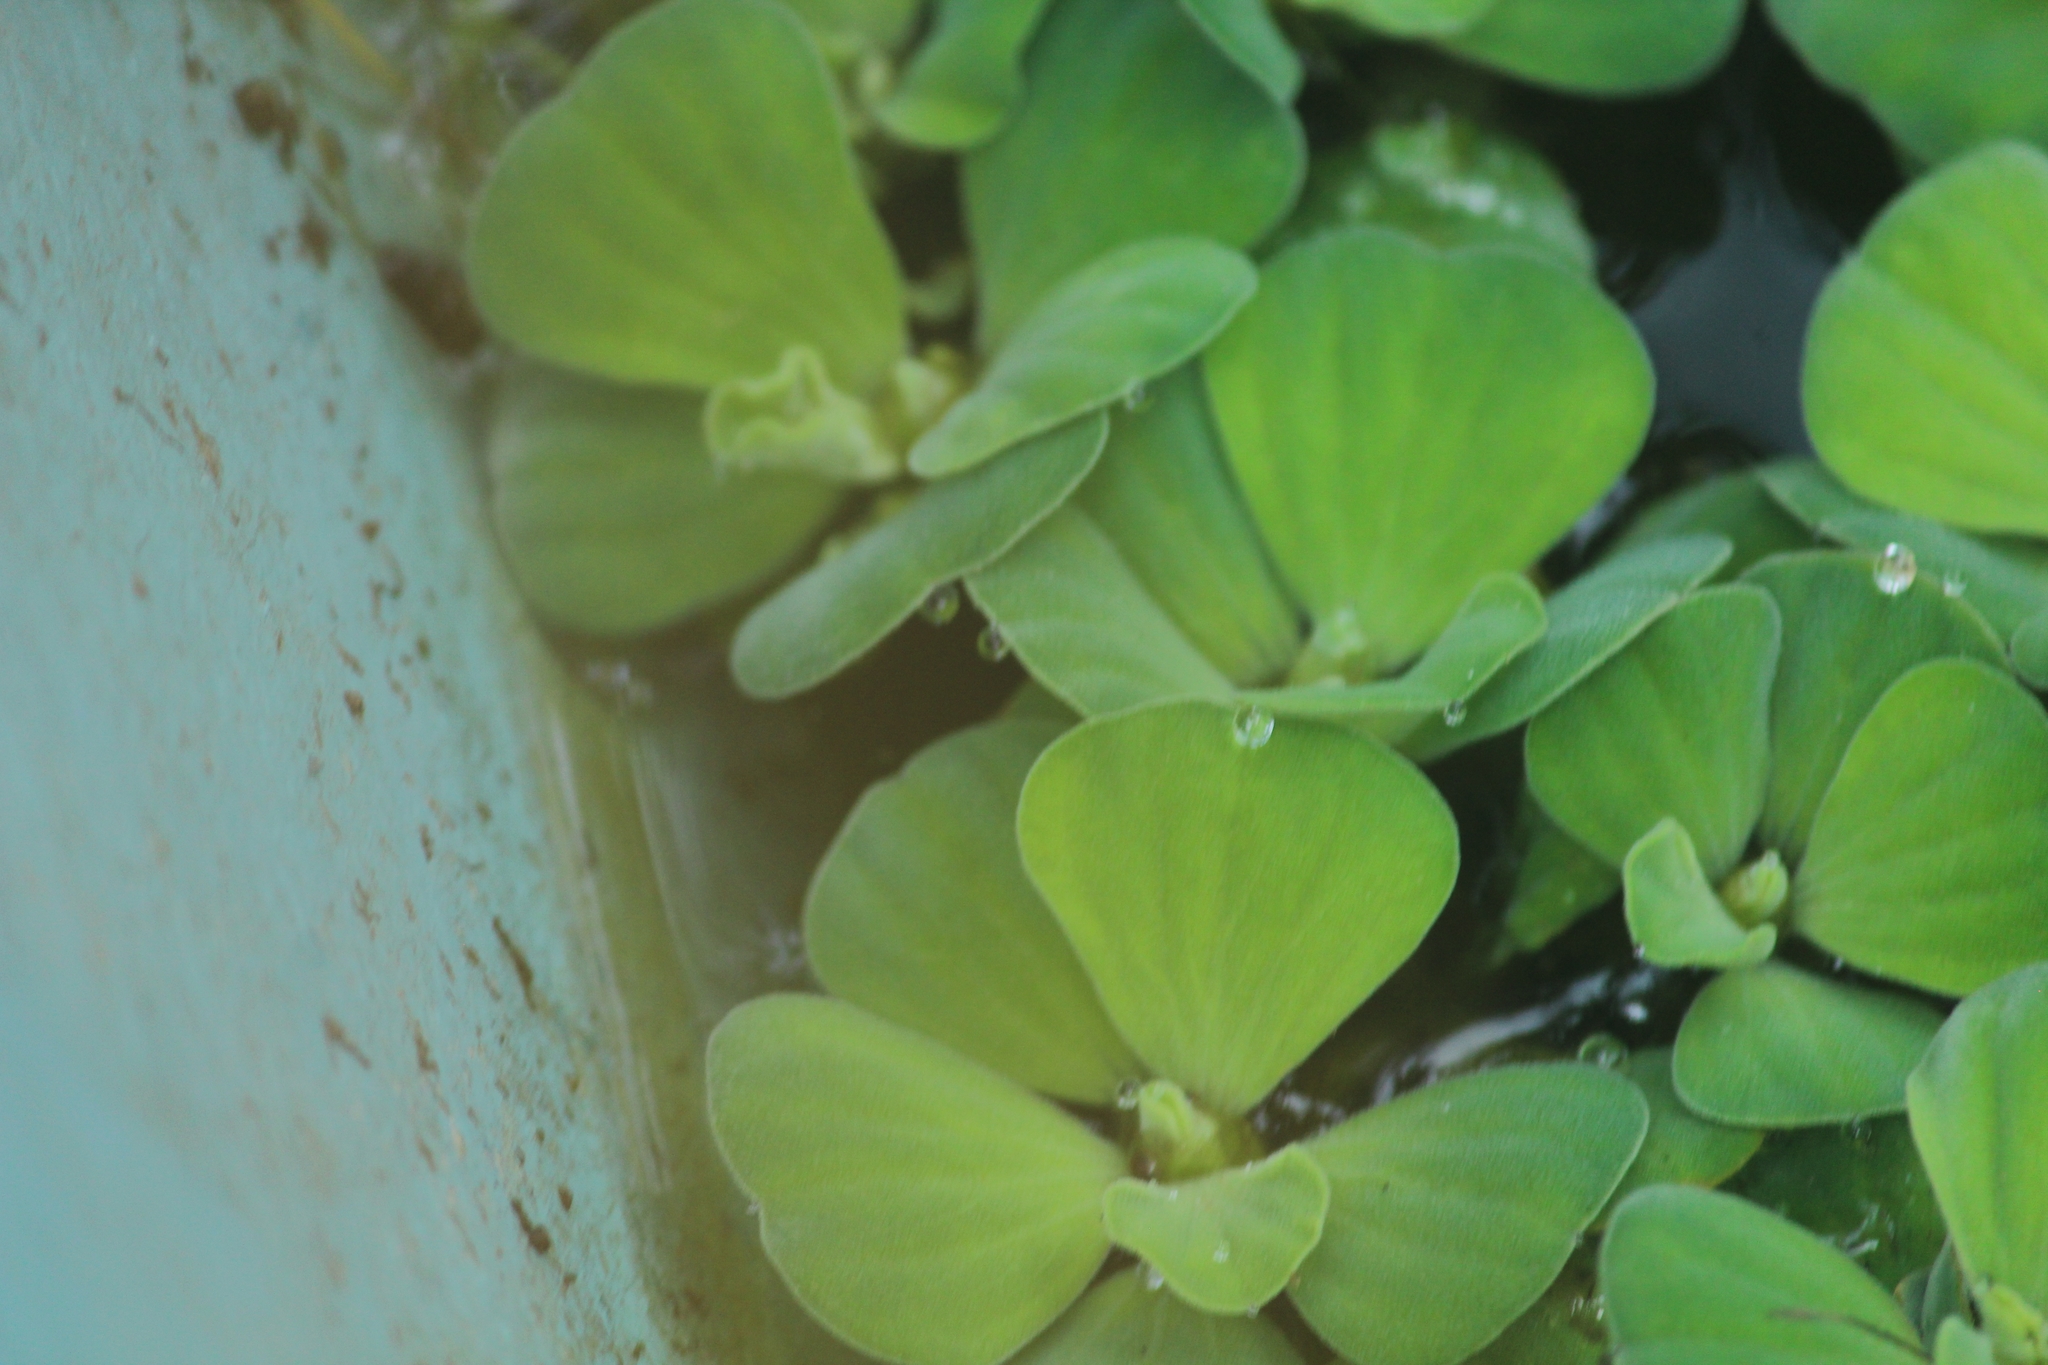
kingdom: Plantae
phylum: Tracheophyta
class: Liliopsida
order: Alismatales
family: Araceae
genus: Pistia
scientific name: Pistia stratiotes
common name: Water lettuce
